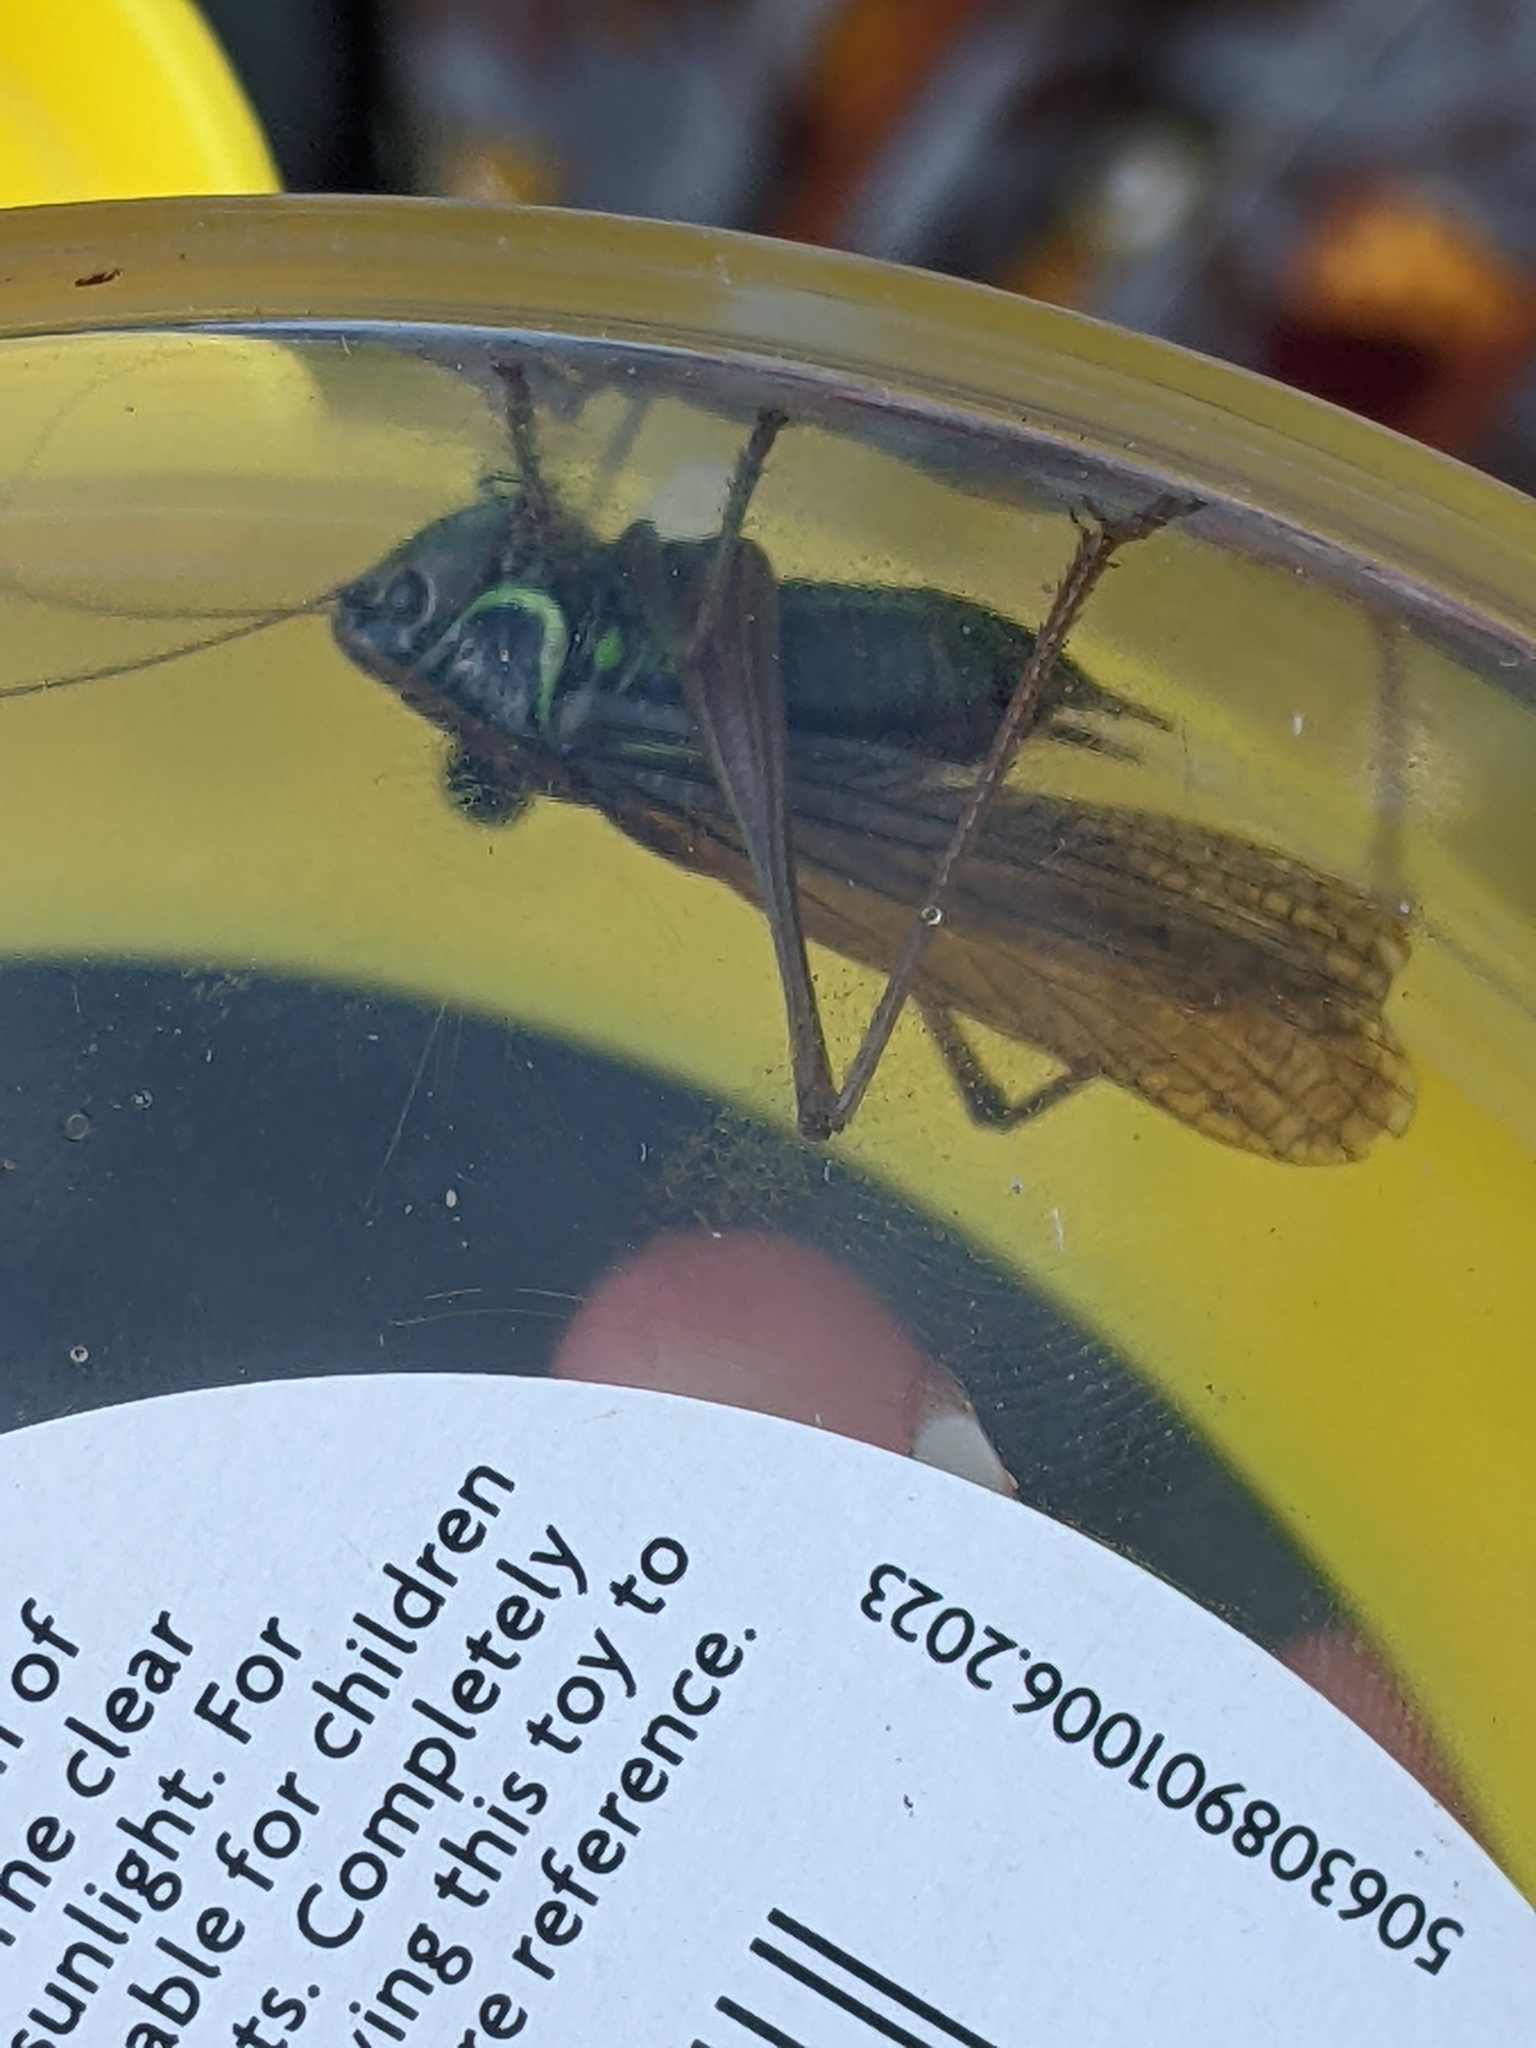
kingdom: Animalia
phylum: Arthropoda
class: Insecta
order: Orthoptera
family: Tettigoniidae
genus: Roeseliana
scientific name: Roeseliana roeselii
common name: Roesel's bush cricket
